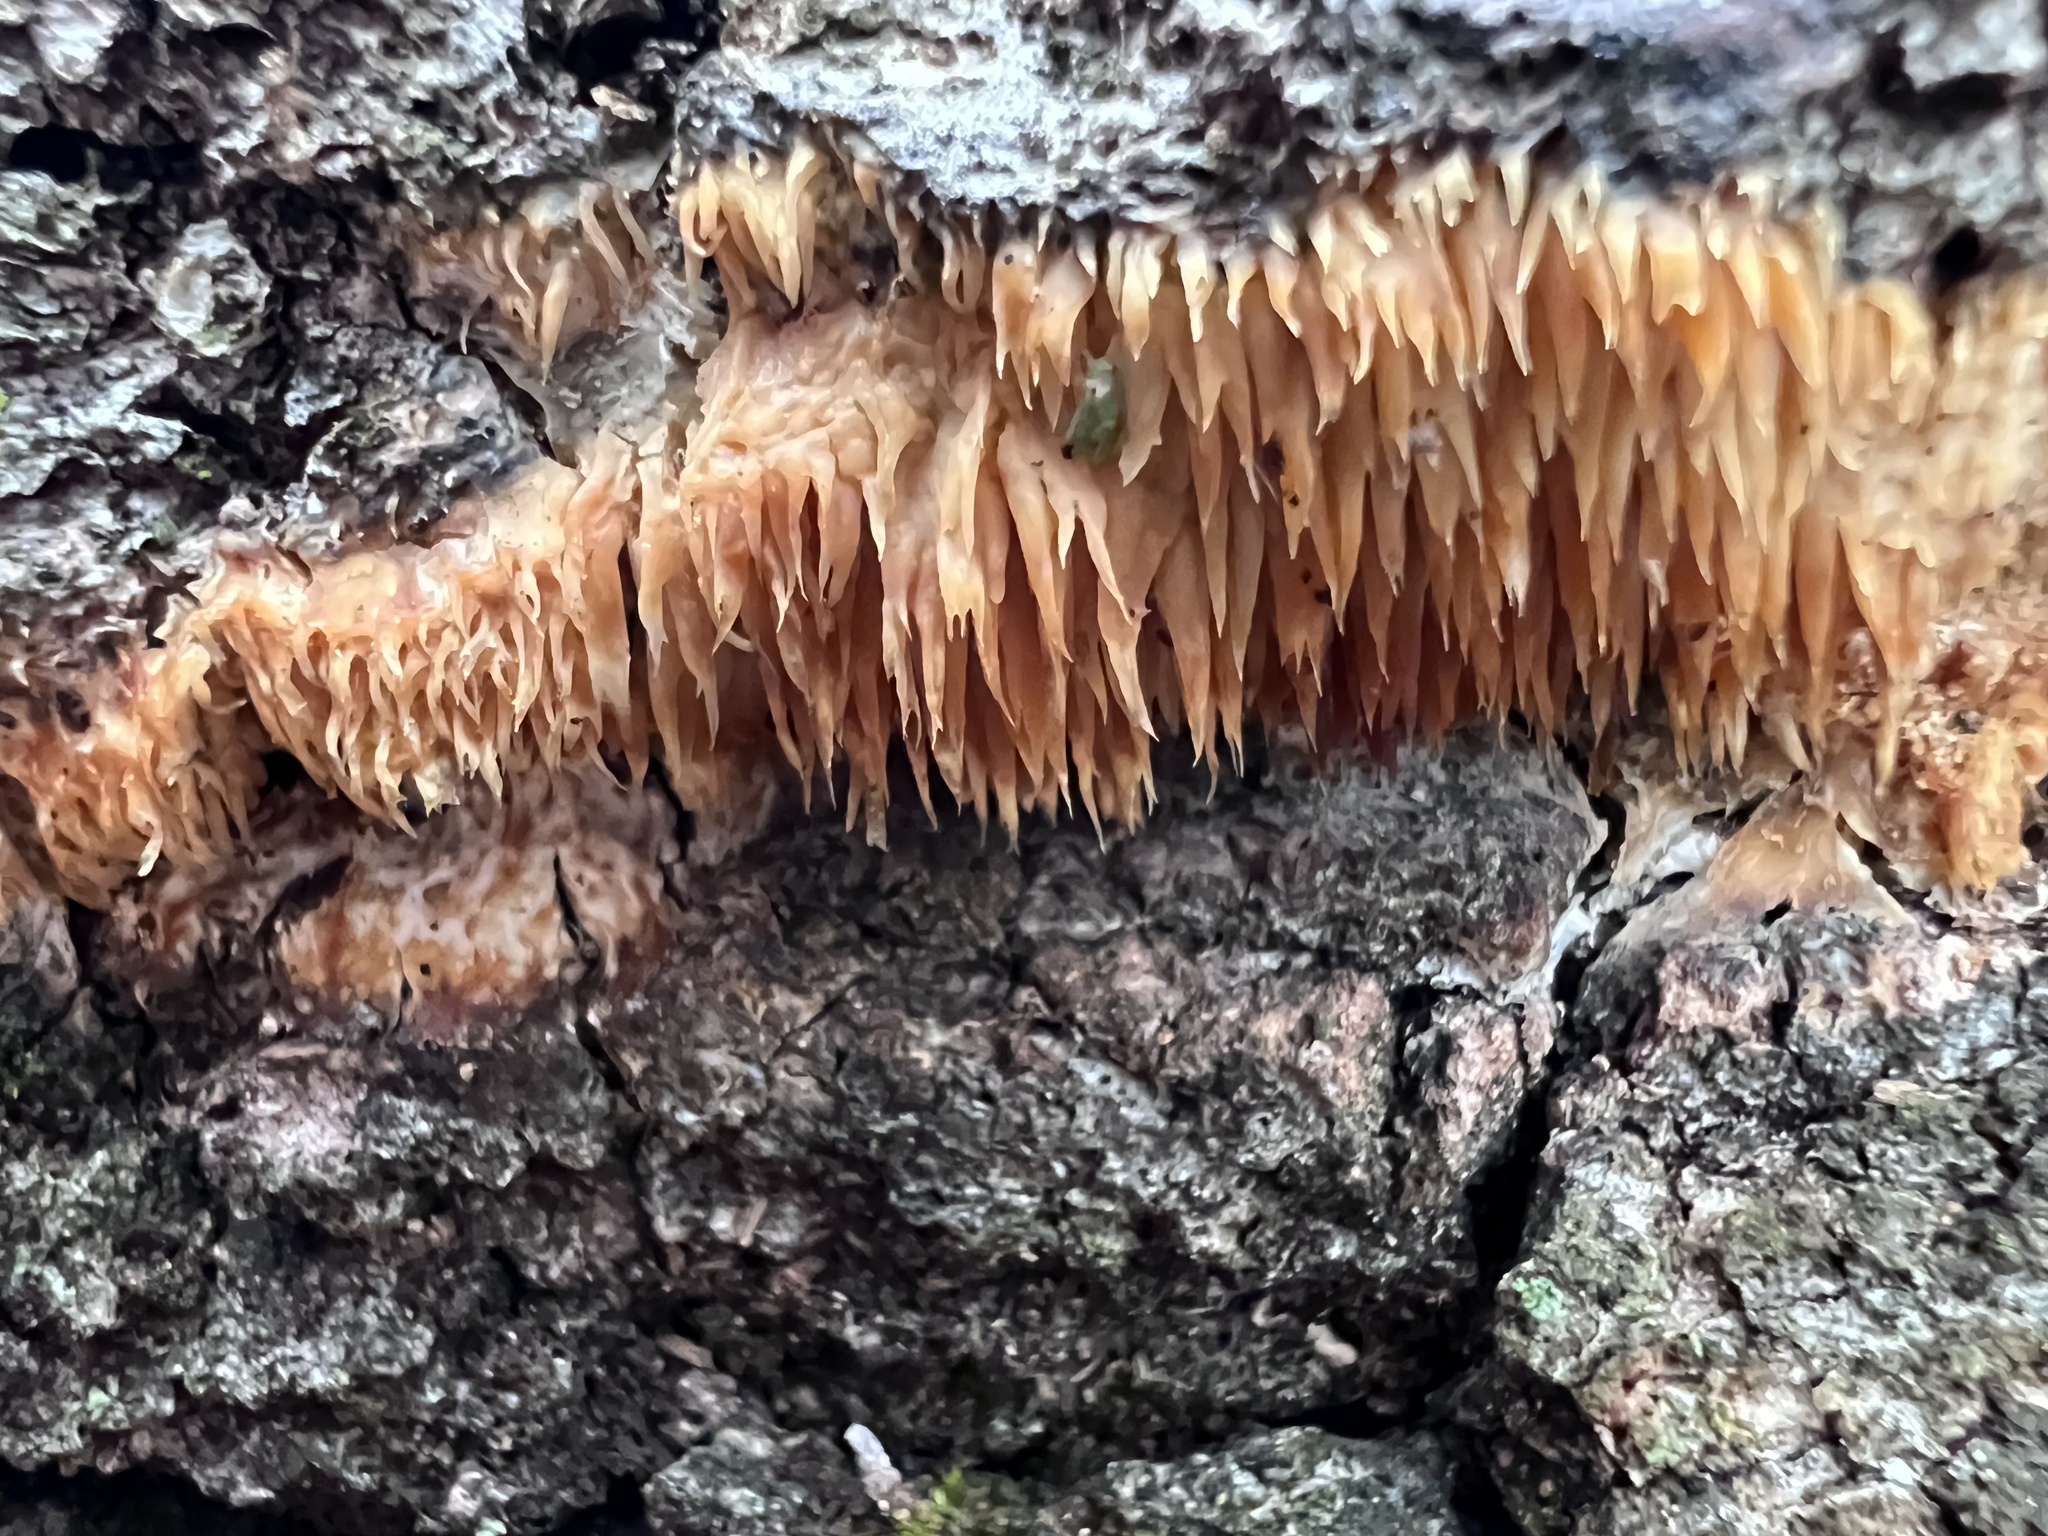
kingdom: Fungi
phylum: Basidiomycota
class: Agaricomycetes
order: Agaricales
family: Radulomycetaceae
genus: Radulomyces
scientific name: Radulomyces copelandii
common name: Asian beauty
